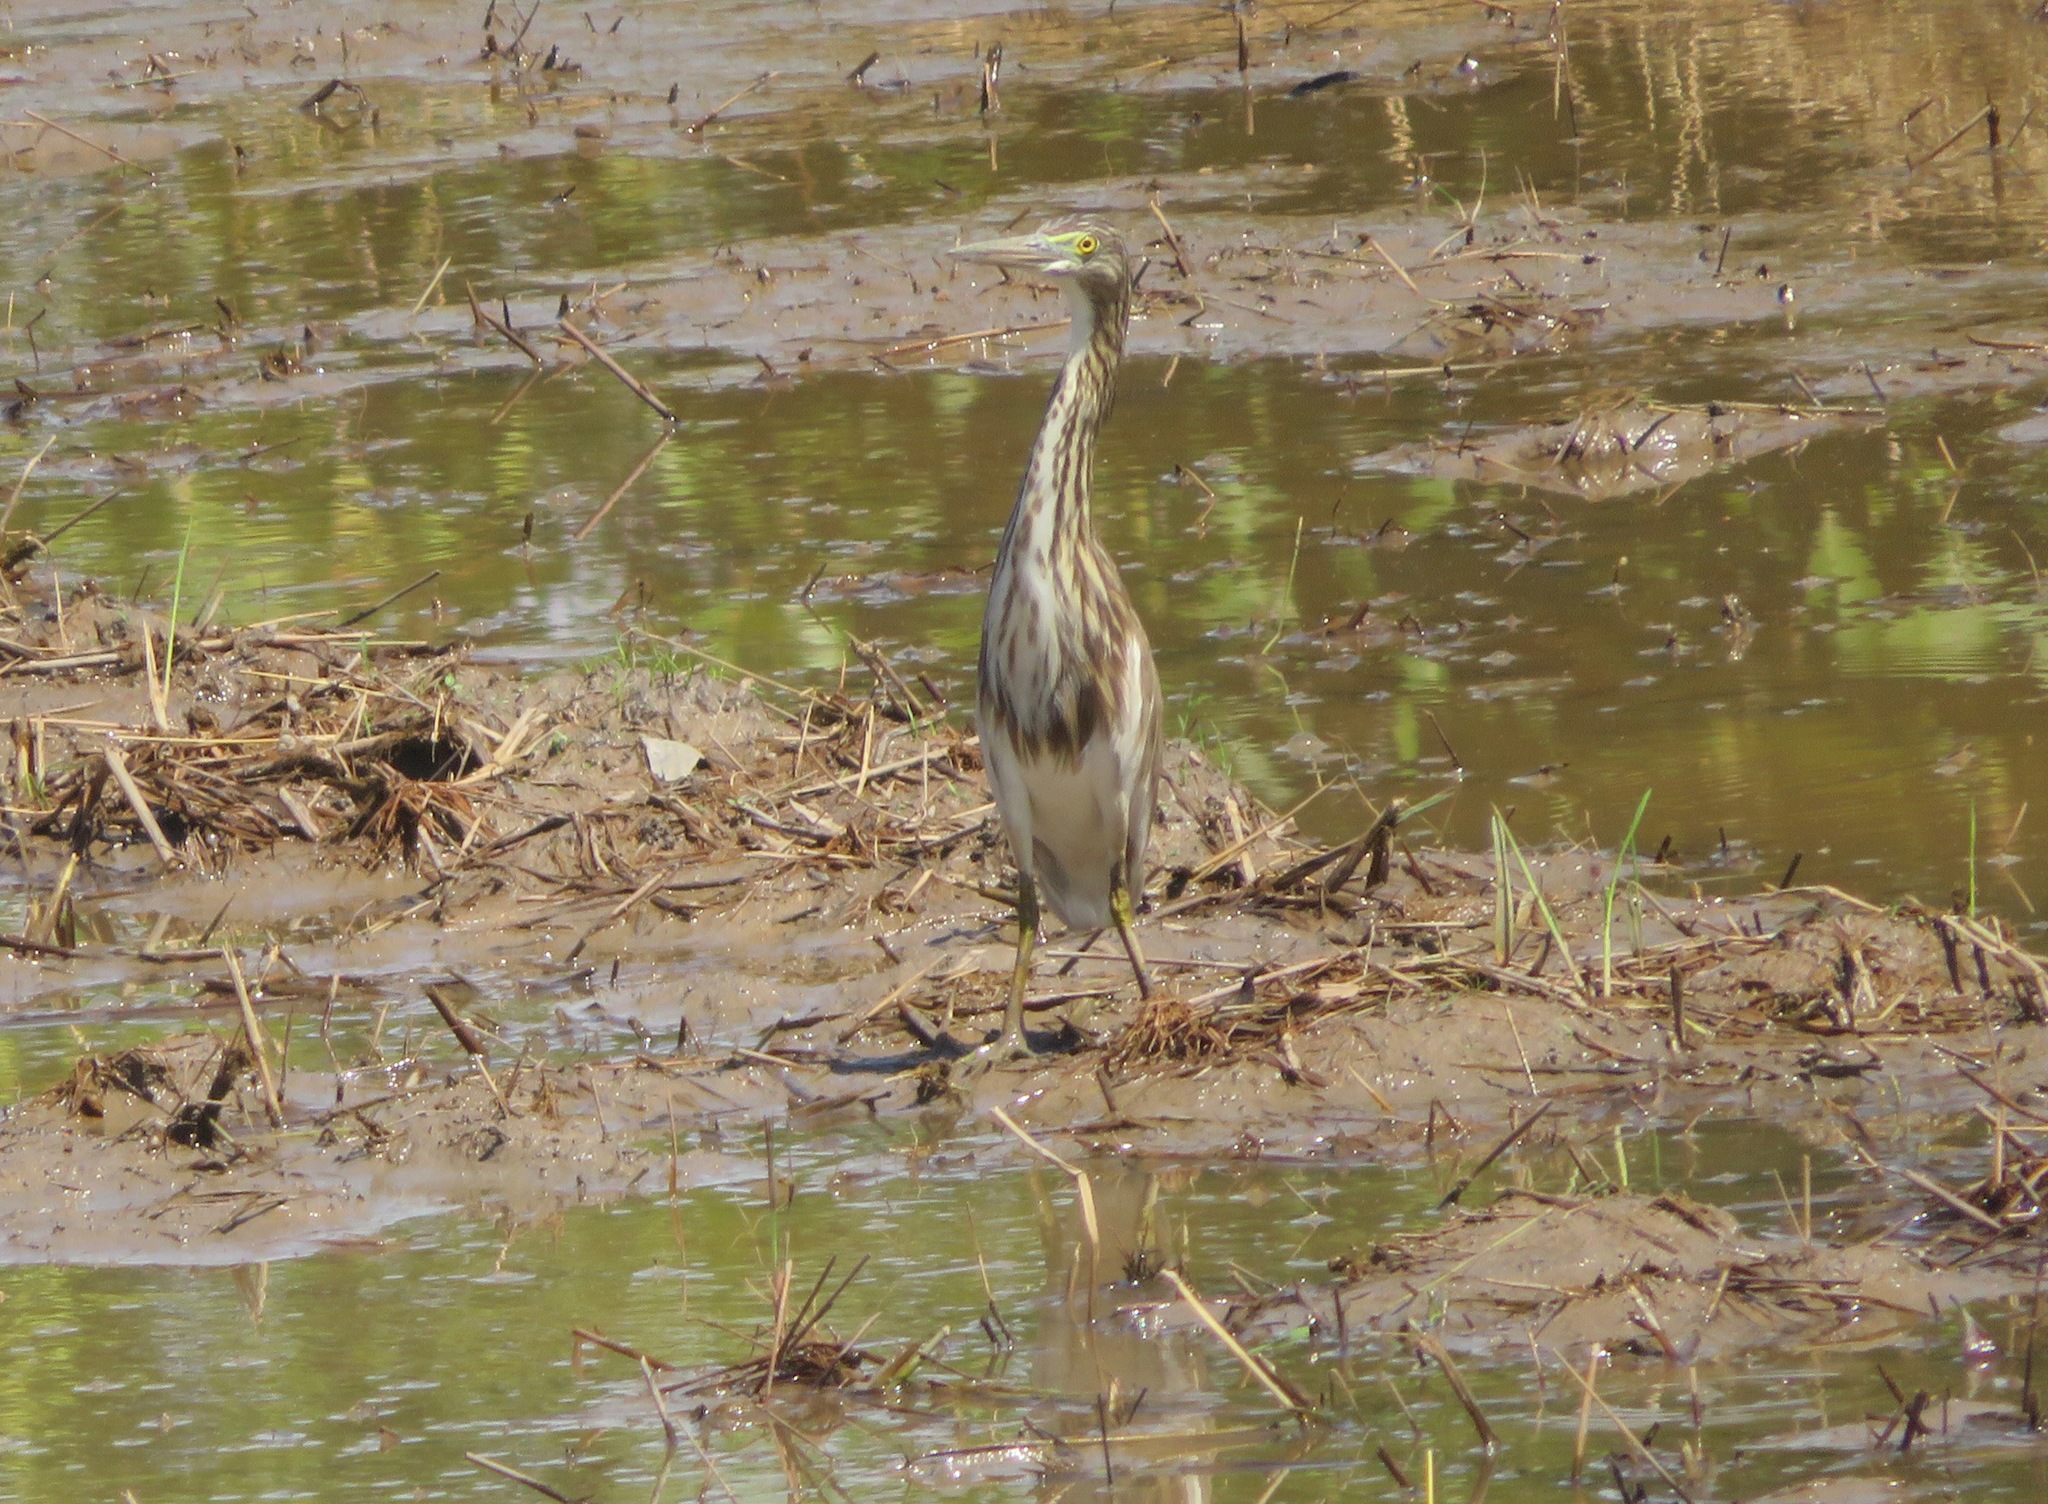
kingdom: Animalia
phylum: Chordata
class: Aves
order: Pelecaniformes
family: Ardeidae
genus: Ardeola
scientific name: Ardeola
